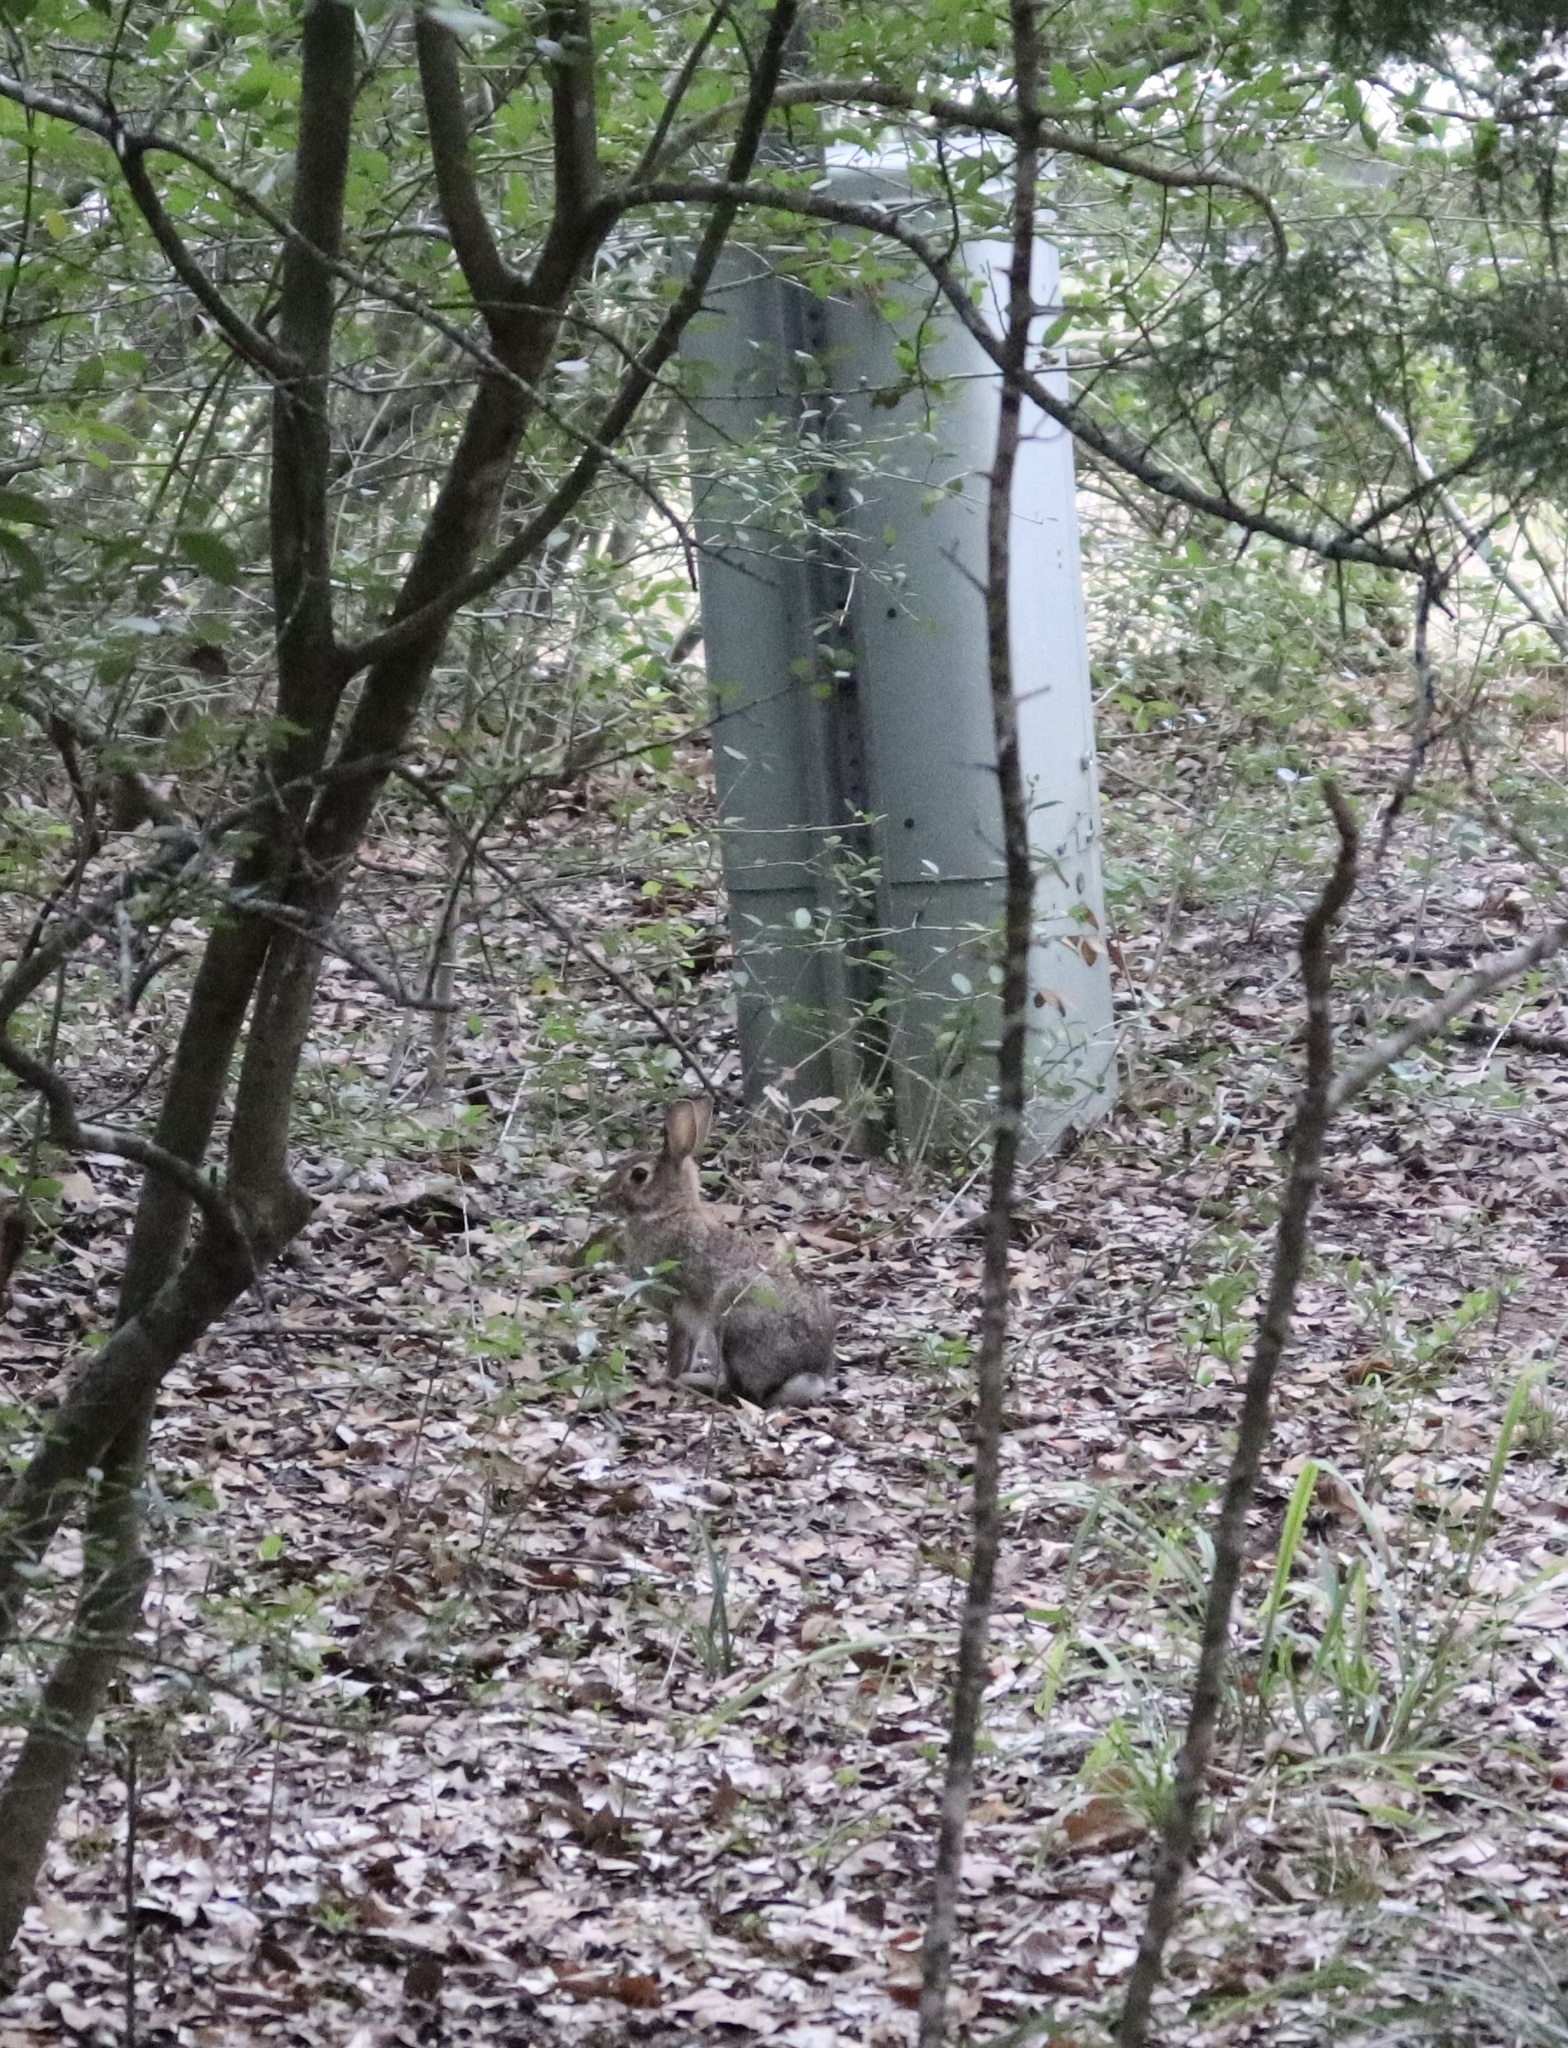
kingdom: Animalia
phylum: Chordata
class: Mammalia
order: Lagomorpha
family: Leporidae
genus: Sylvilagus
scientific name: Sylvilagus floridanus
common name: Eastern cottontail
